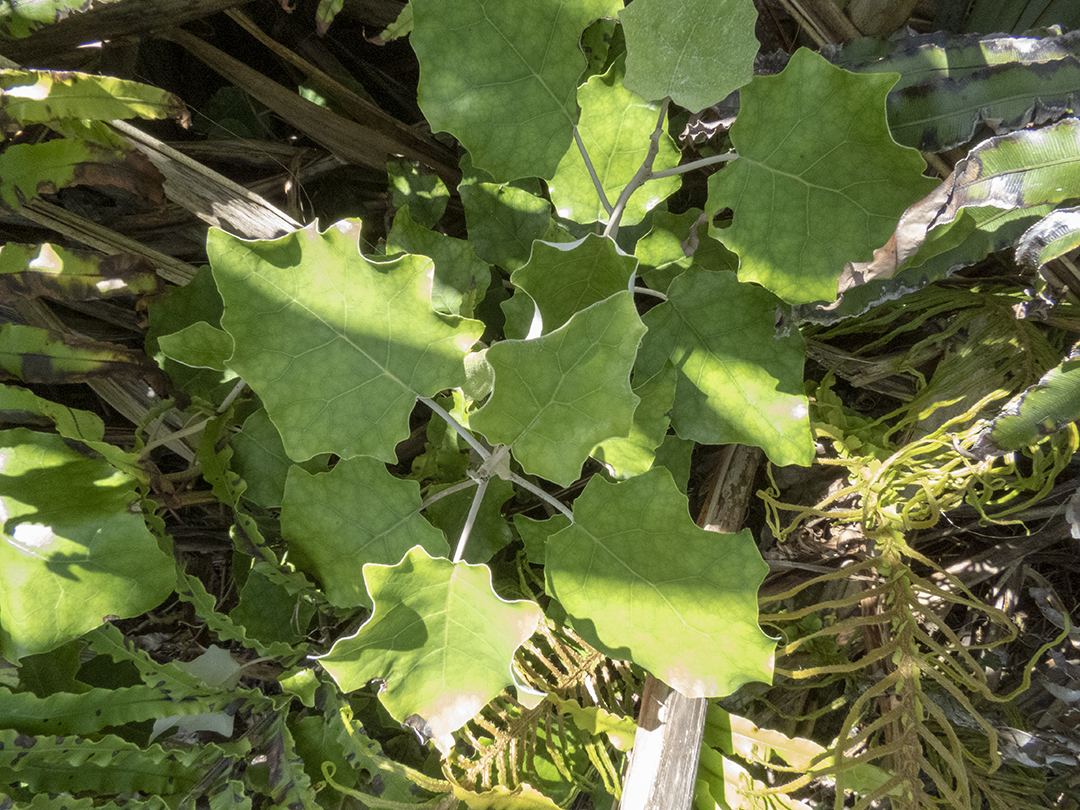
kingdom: Plantae
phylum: Tracheophyta
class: Magnoliopsida
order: Asterales
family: Asteraceae
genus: Brachyglottis
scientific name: Brachyglottis repanda
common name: Hedge ragwort
